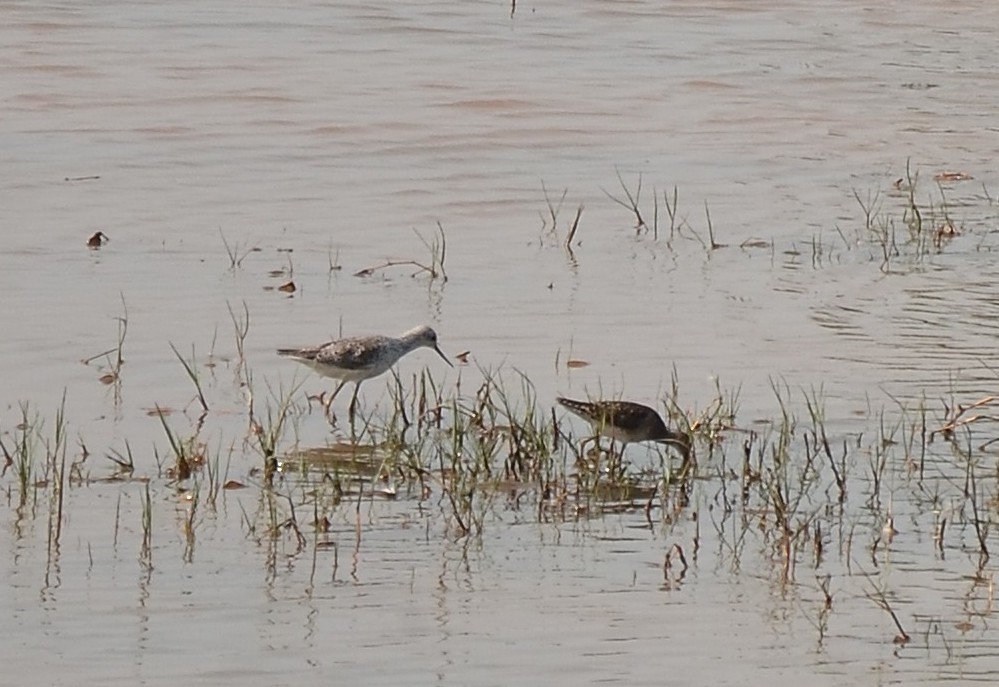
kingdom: Animalia
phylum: Chordata
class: Aves
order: Charadriiformes
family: Scolopacidae
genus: Tringa
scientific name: Tringa glareola
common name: Wood sandpiper
